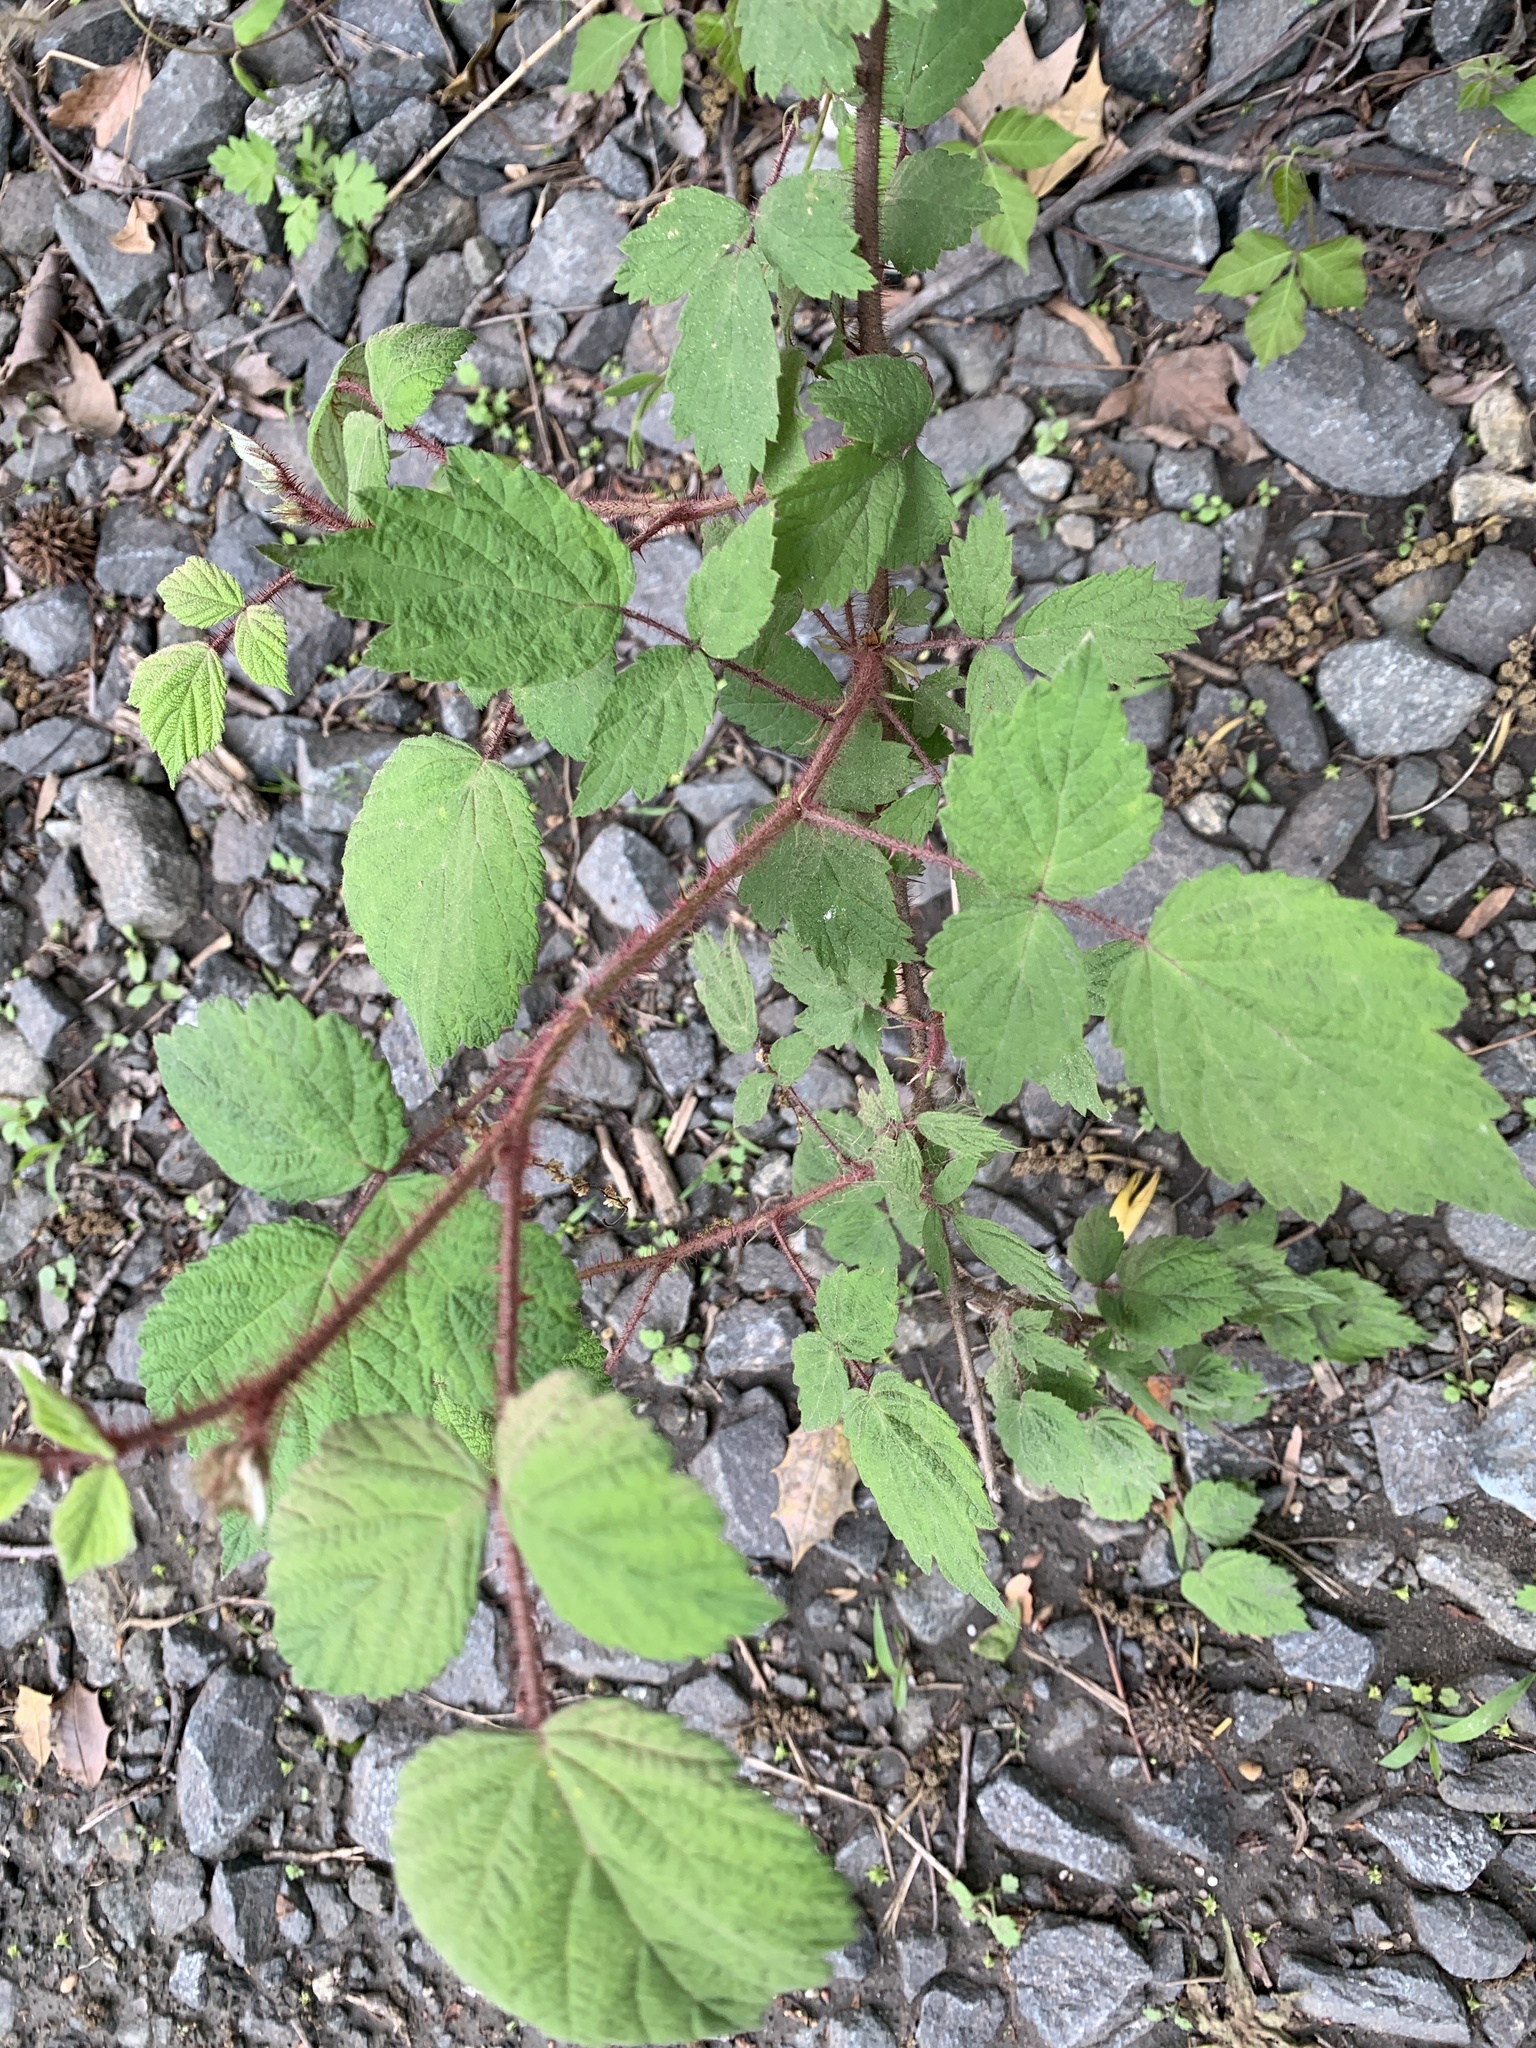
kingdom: Plantae
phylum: Tracheophyta
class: Magnoliopsida
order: Rosales
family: Rosaceae
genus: Rubus
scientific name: Rubus phoenicolasius
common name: Japanese wineberry
